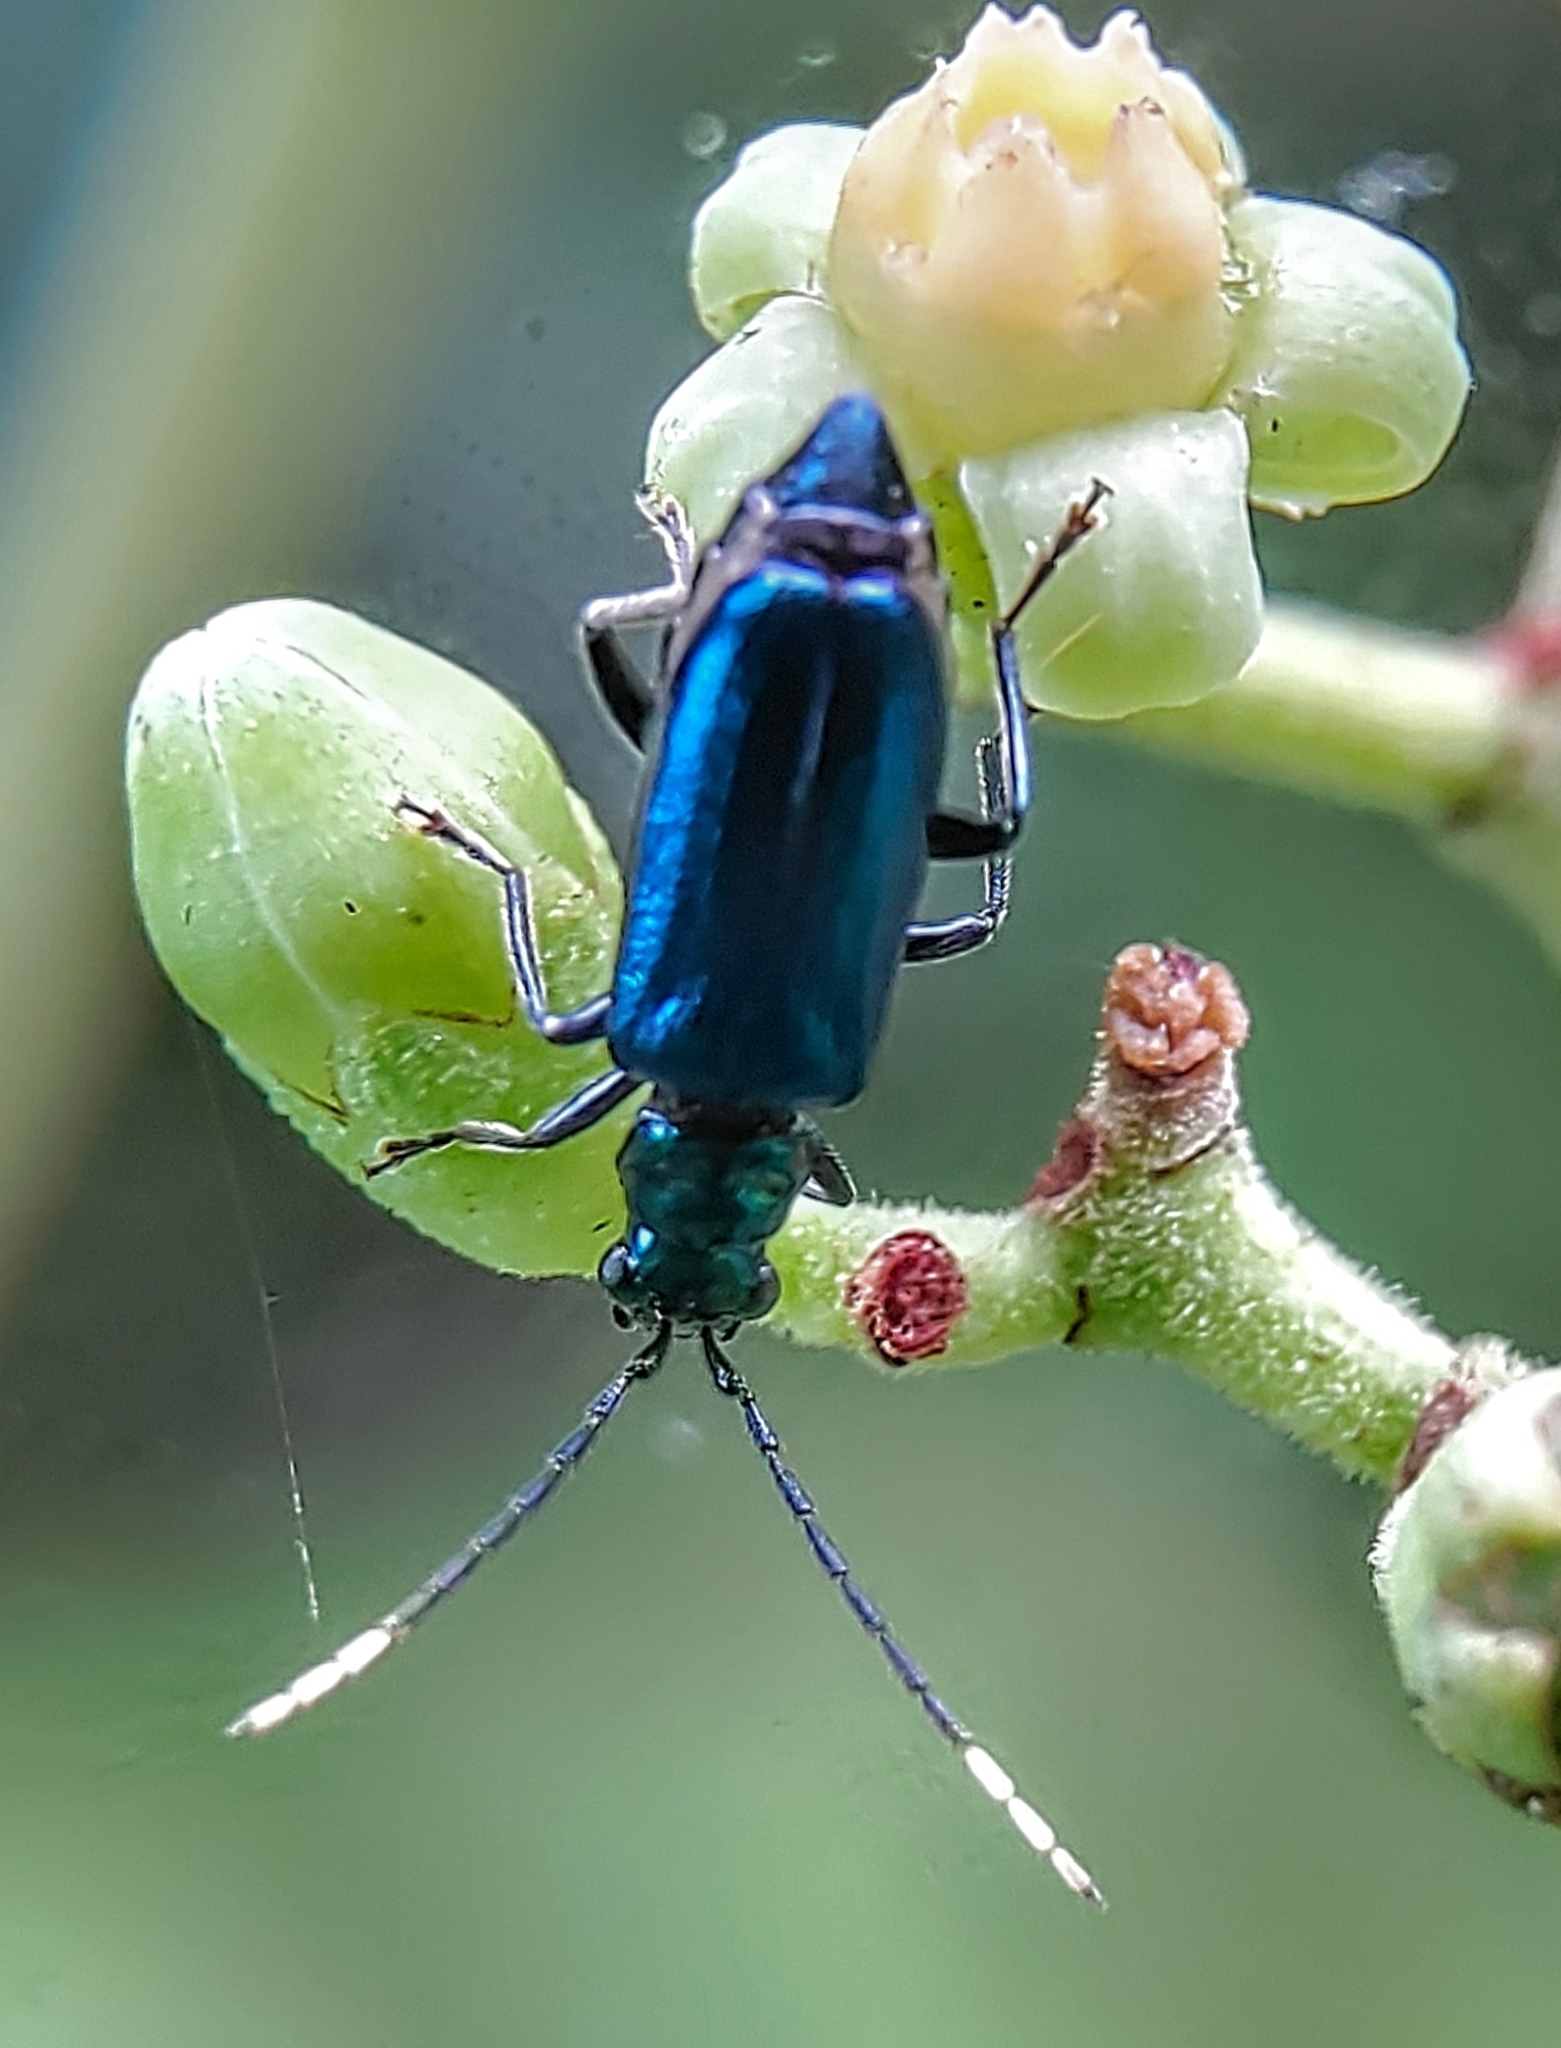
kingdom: Animalia
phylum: Arthropoda
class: Insecta
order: Coleoptera
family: Chrysomelidae
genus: Hoplosaenidea
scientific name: Hoplosaenidea
